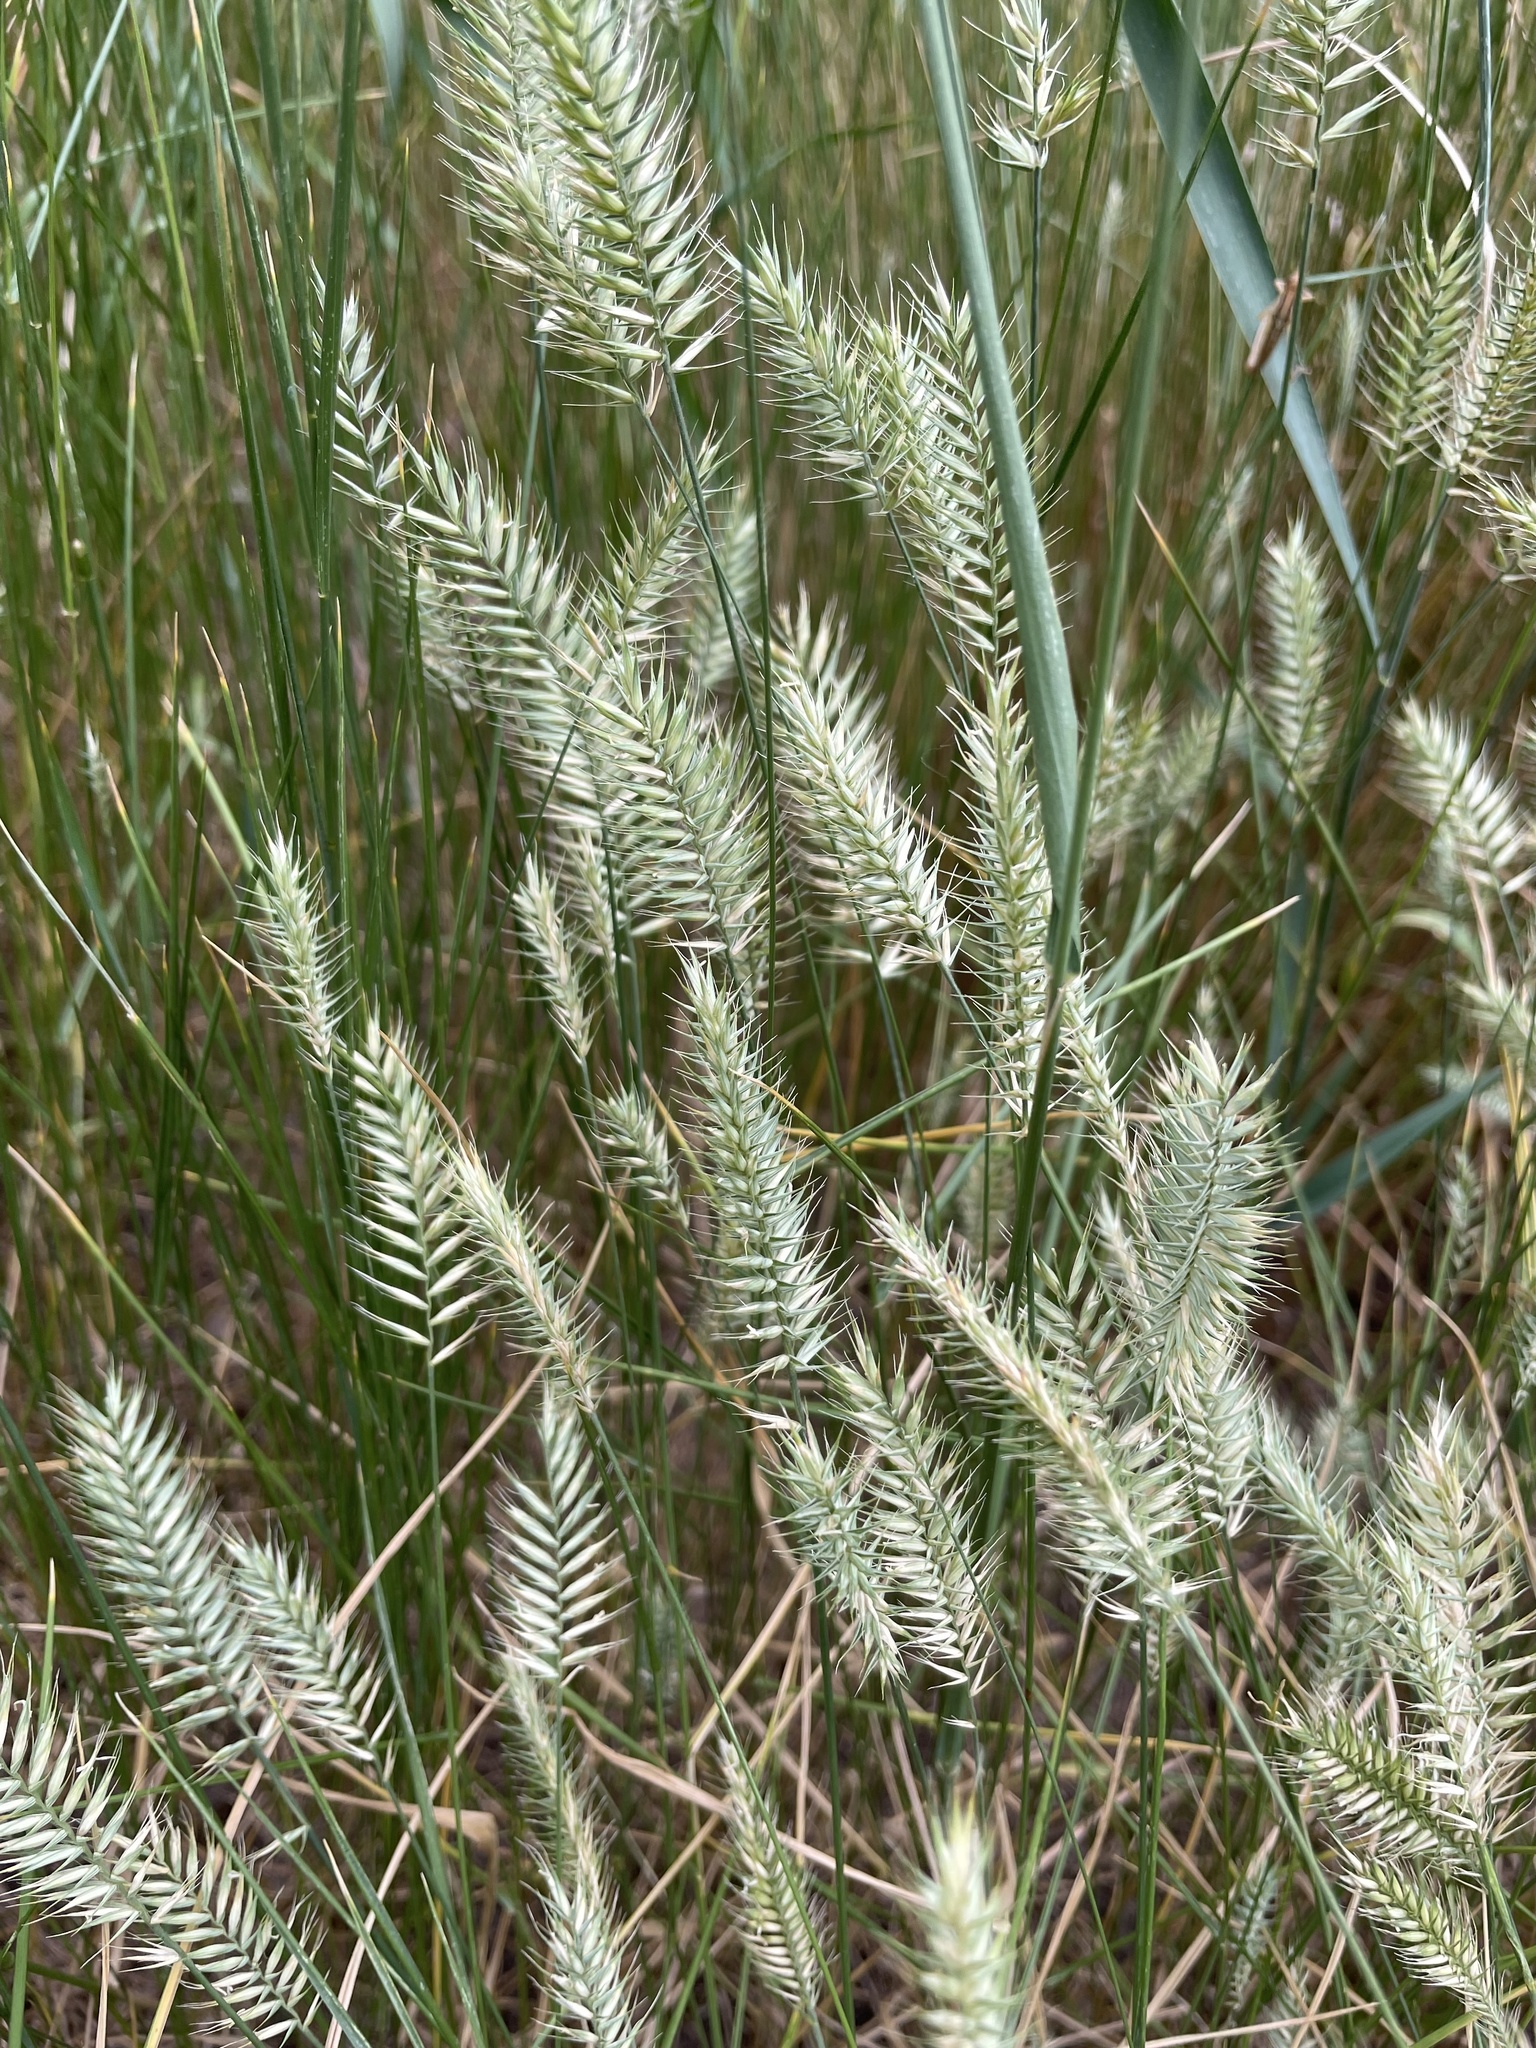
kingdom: Plantae
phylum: Tracheophyta
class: Liliopsida
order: Poales
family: Poaceae
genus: Agropyron
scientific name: Agropyron cristatum
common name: Crested wheatgrass
